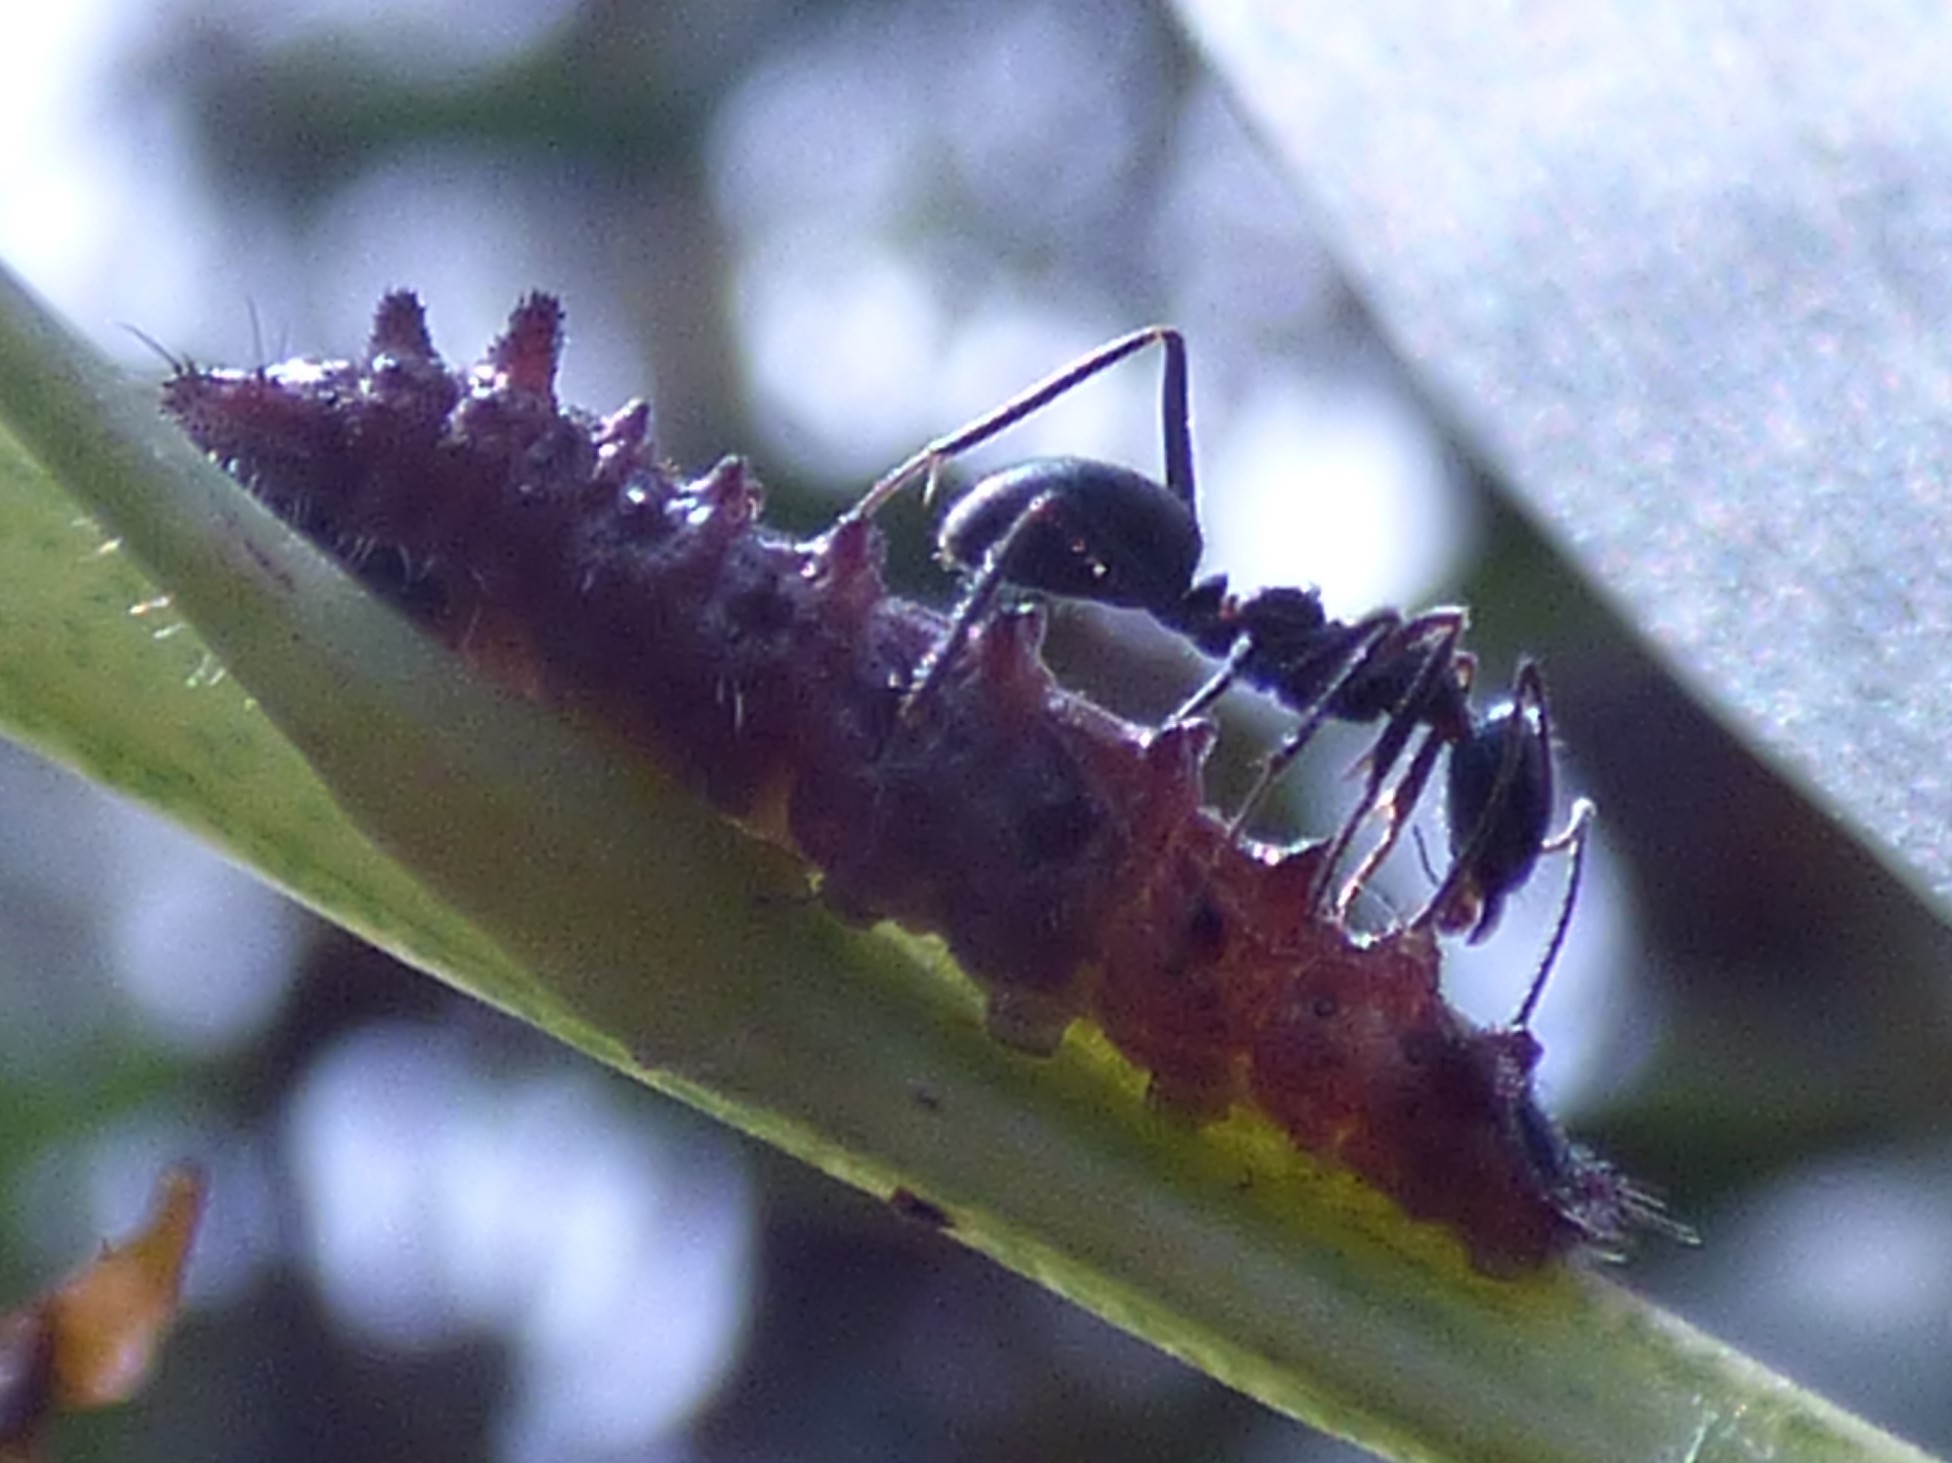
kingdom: Animalia
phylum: Arthropoda
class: Insecta
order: Lepidoptera
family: Lycaenidae
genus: Jalmenus
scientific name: Jalmenus evagoras
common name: Common imperial blue
